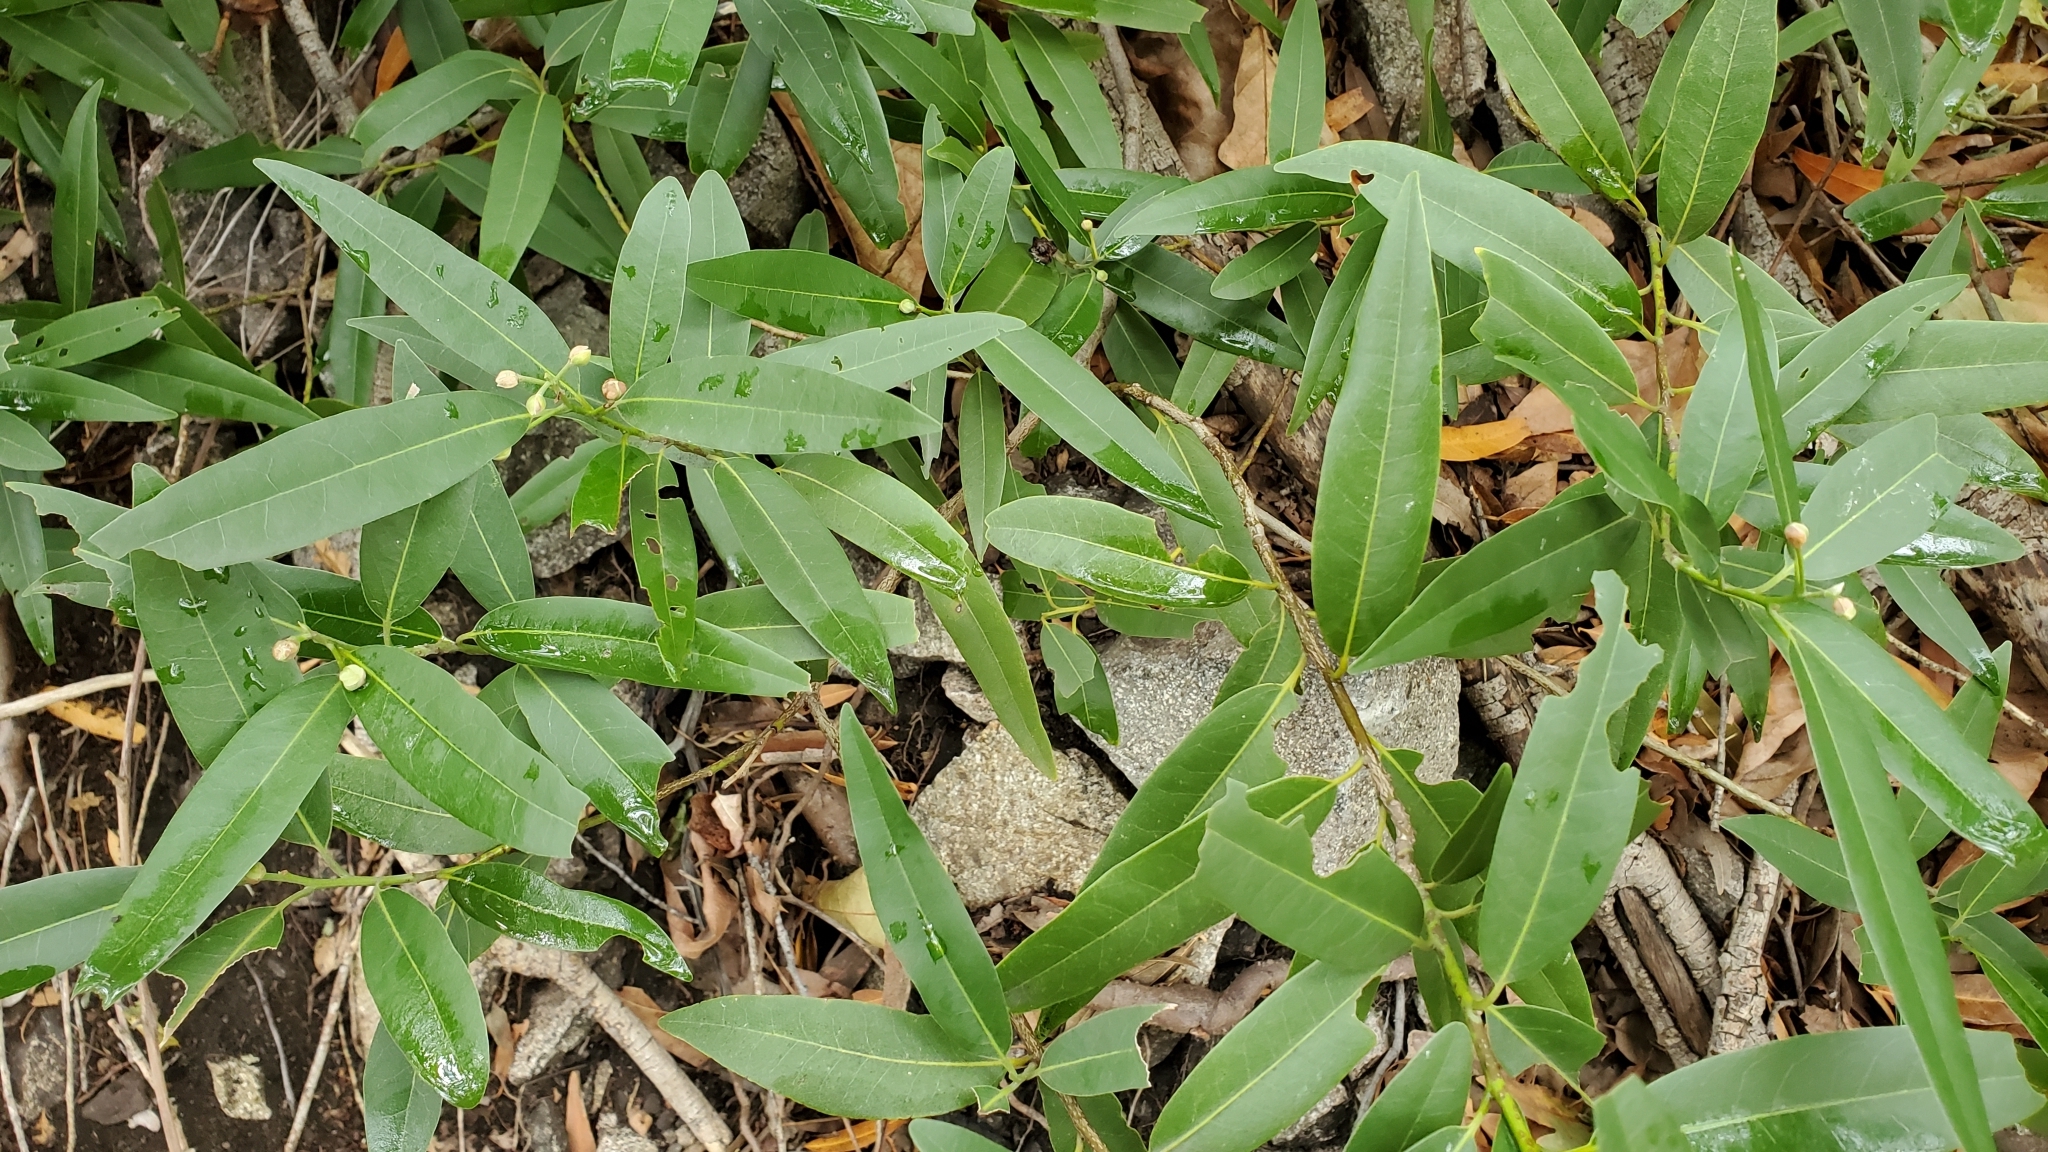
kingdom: Plantae
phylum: Tracheophyta
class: Magnoliopsida
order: Laurales
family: Lauraceae
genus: Umbellularia
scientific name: Umbellularia californica
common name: California bay
